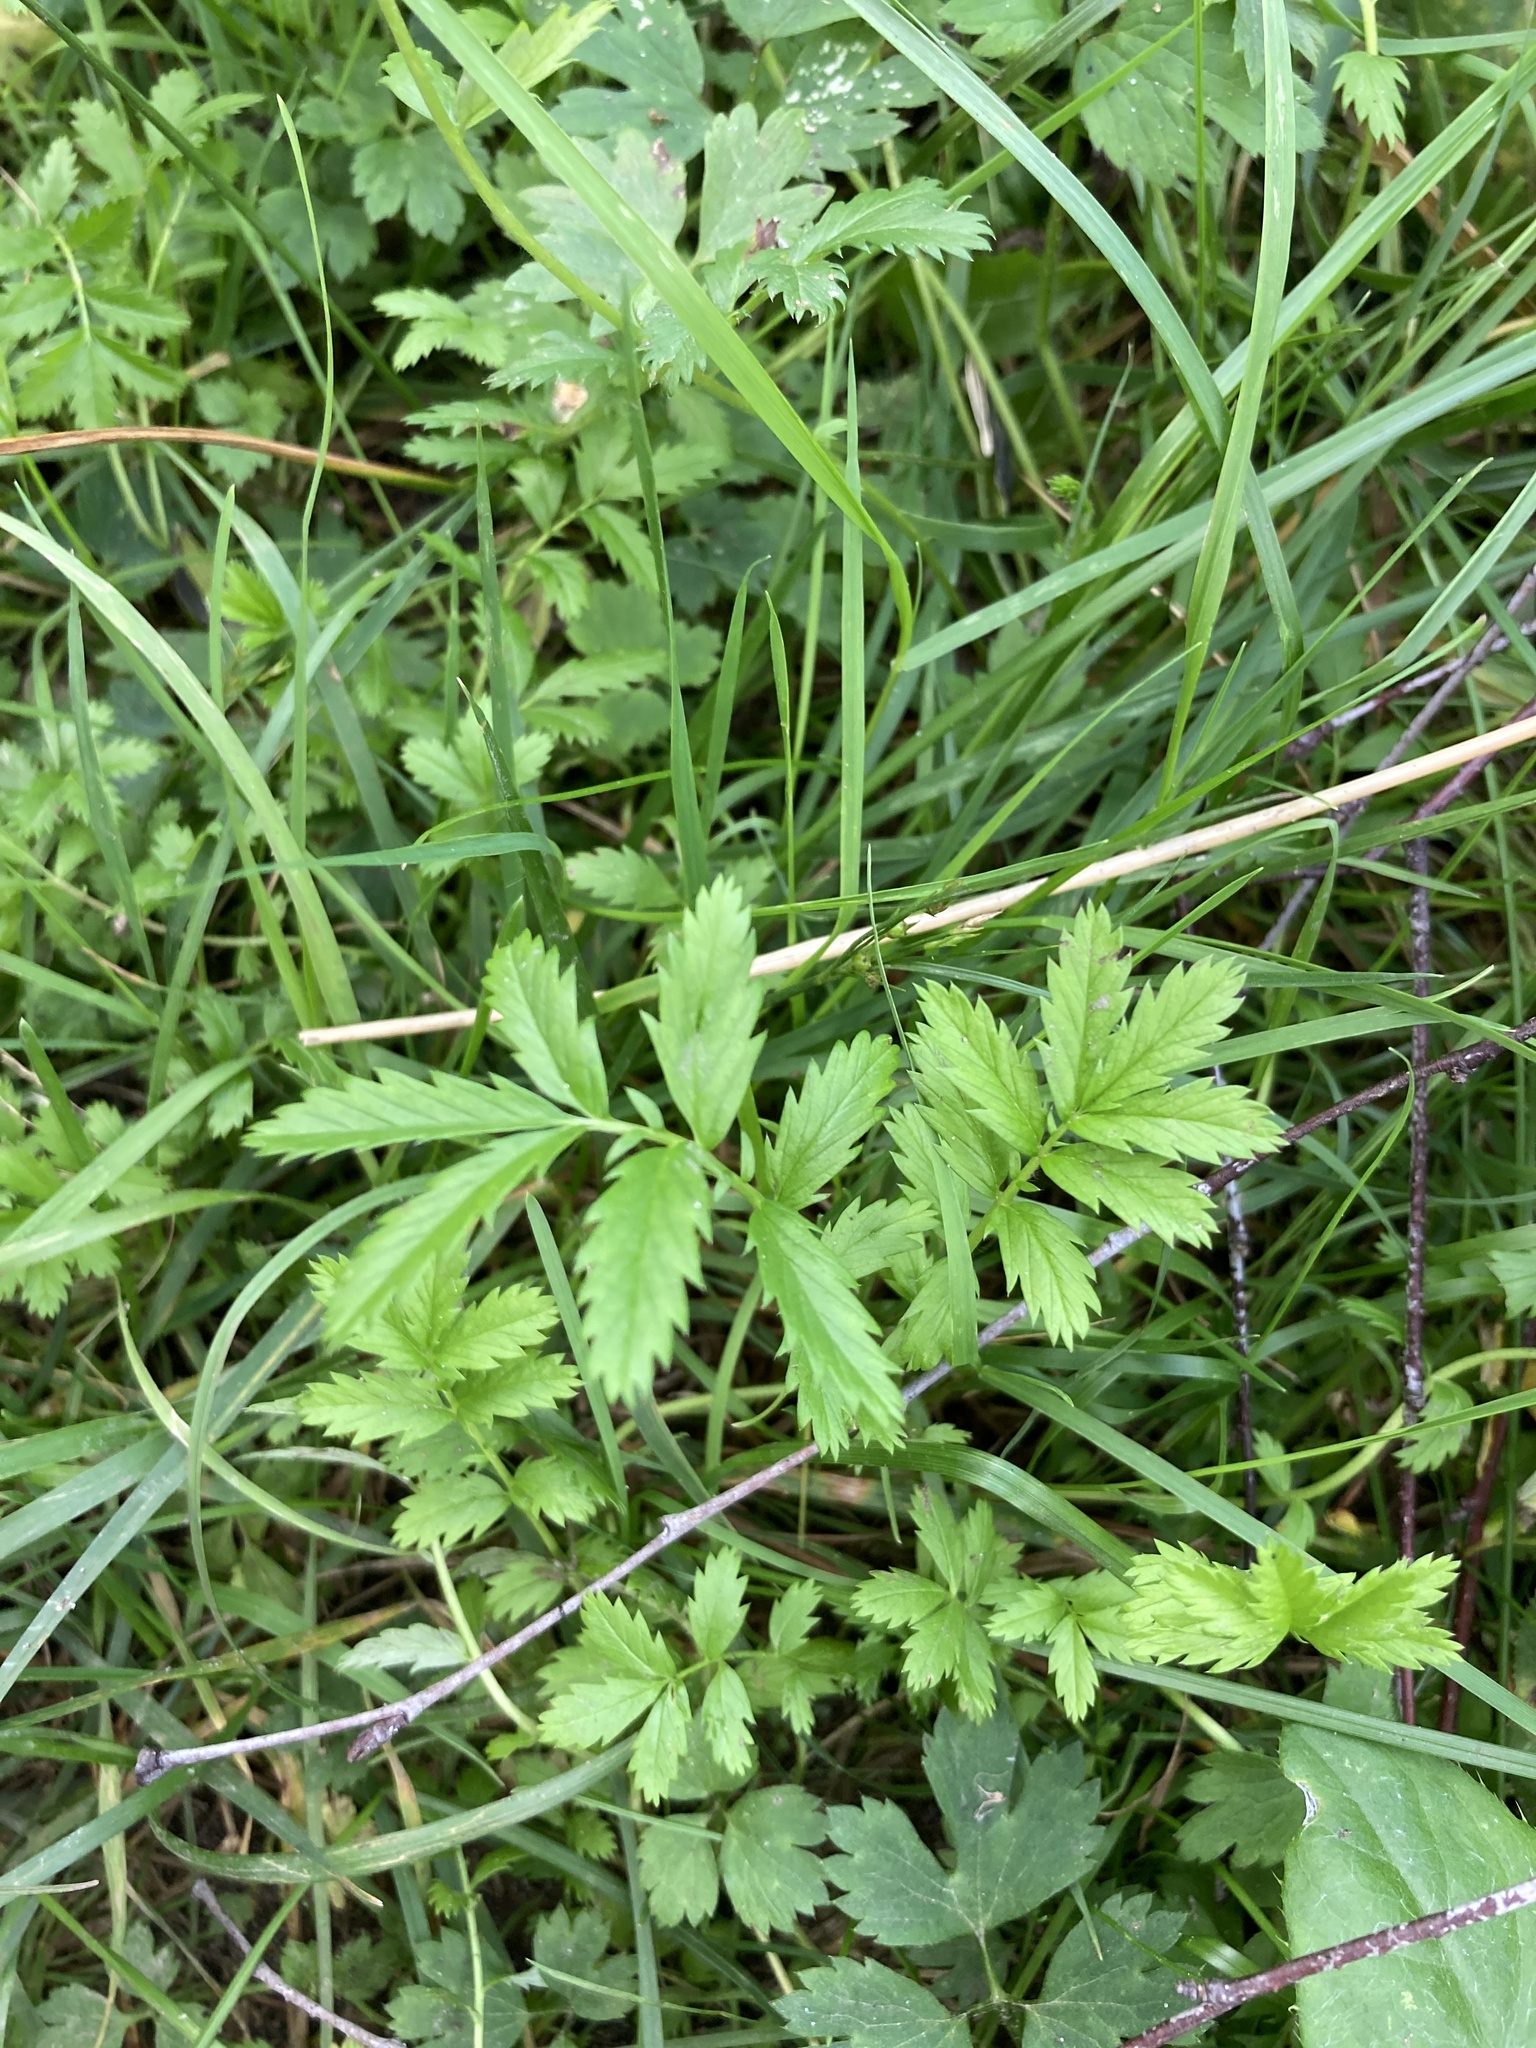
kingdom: Plantae
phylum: Tracheophyta
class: Magnoliopsida
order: Rosales
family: Rosaceae
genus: Argentina
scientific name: Argentina anserina
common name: Common silverweed
